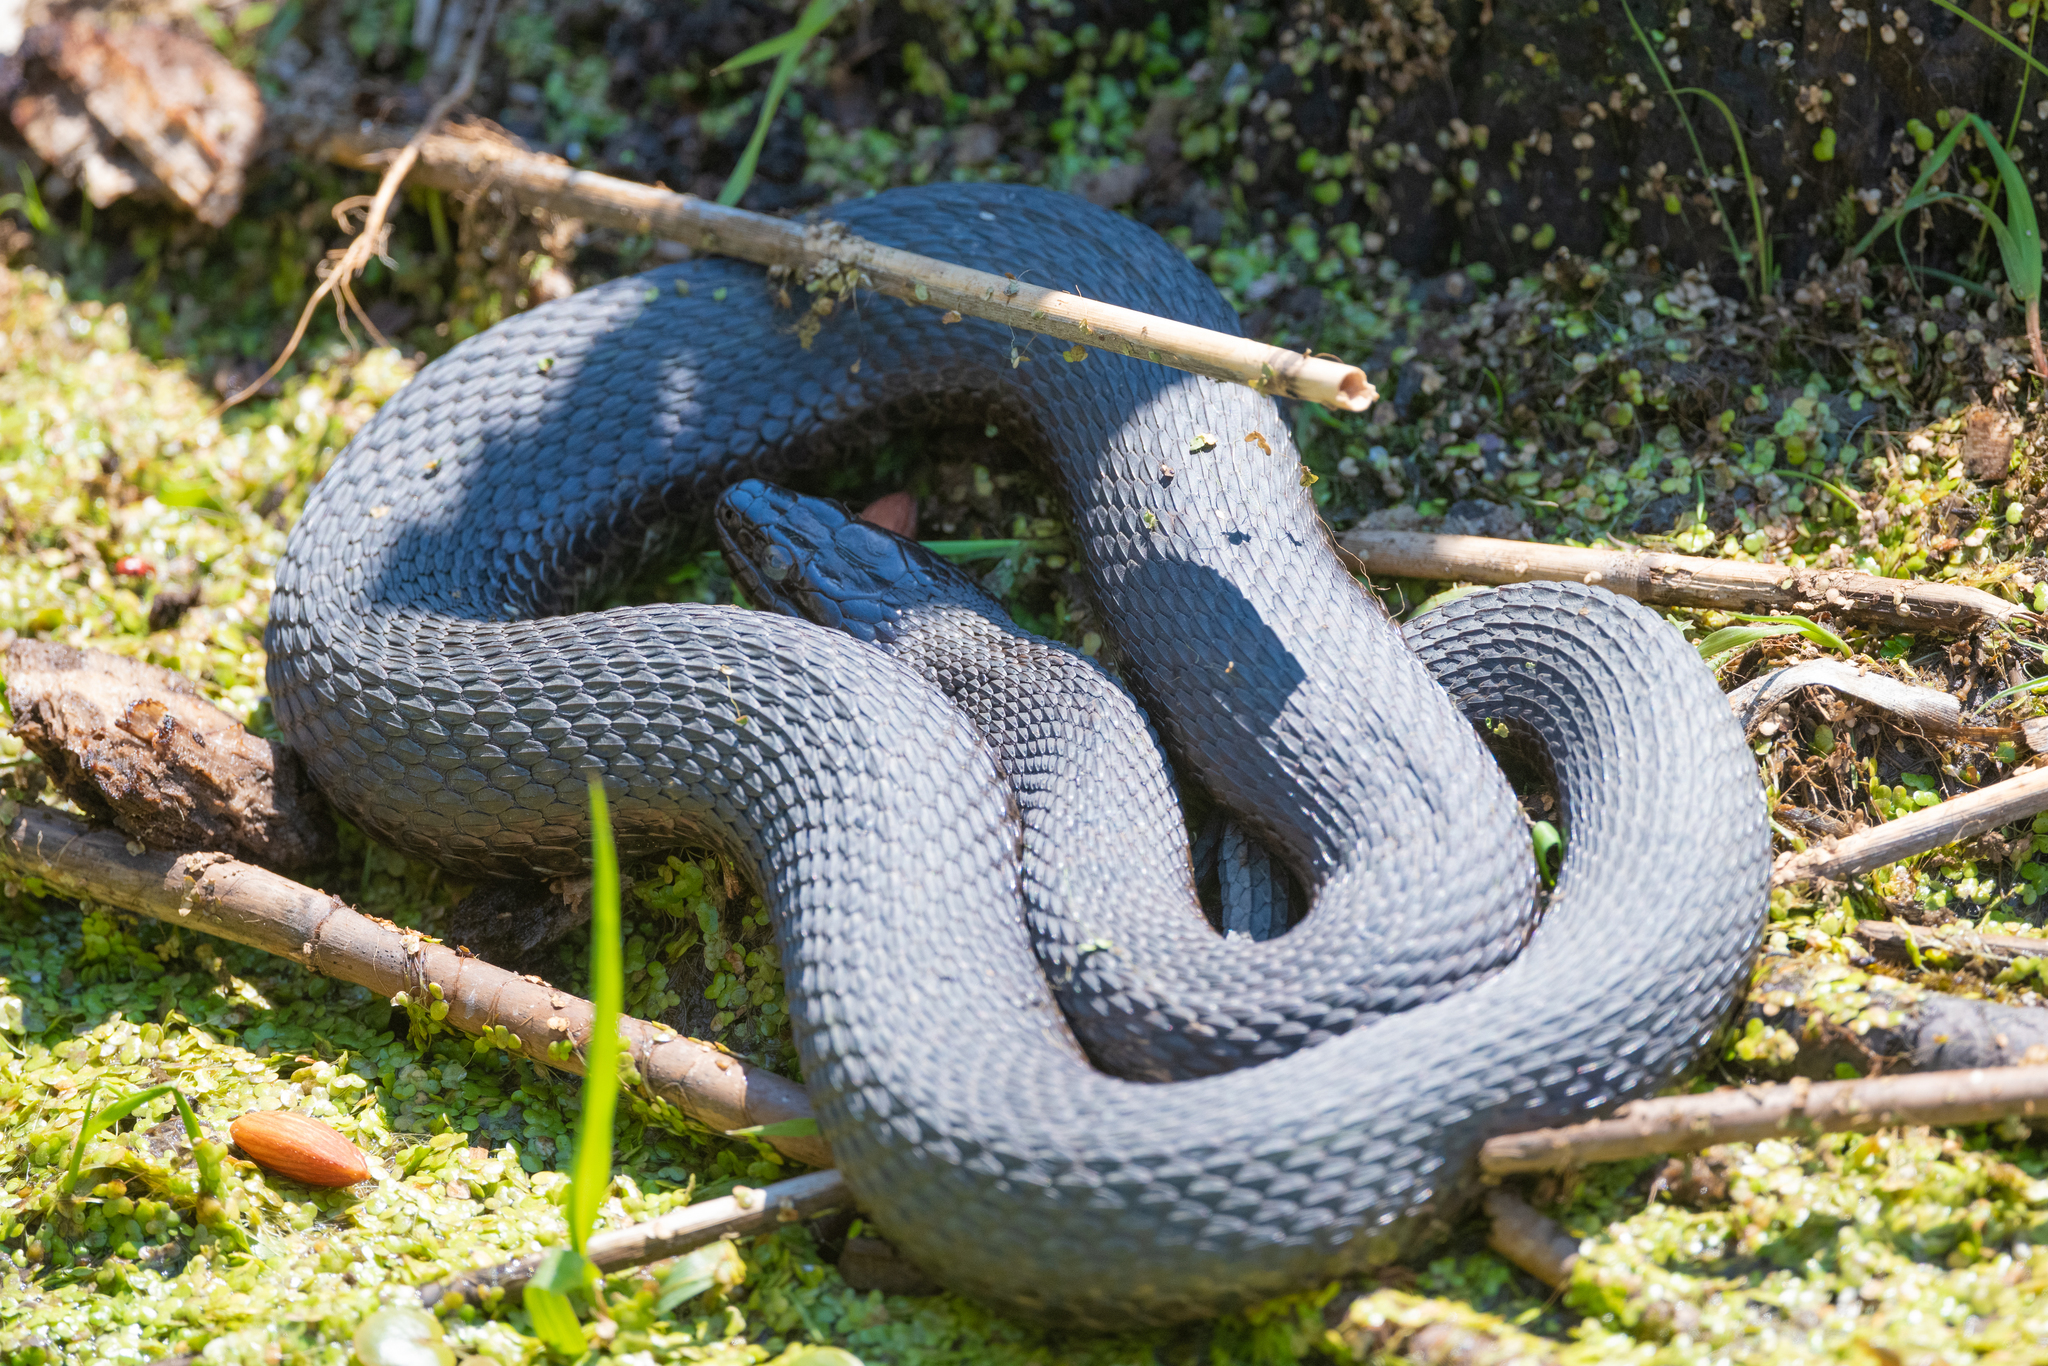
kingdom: Animalia
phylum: Chordata
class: Squamata
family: Colubridae
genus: Nerodia
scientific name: Nerodia sipedon
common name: Northern water snake
